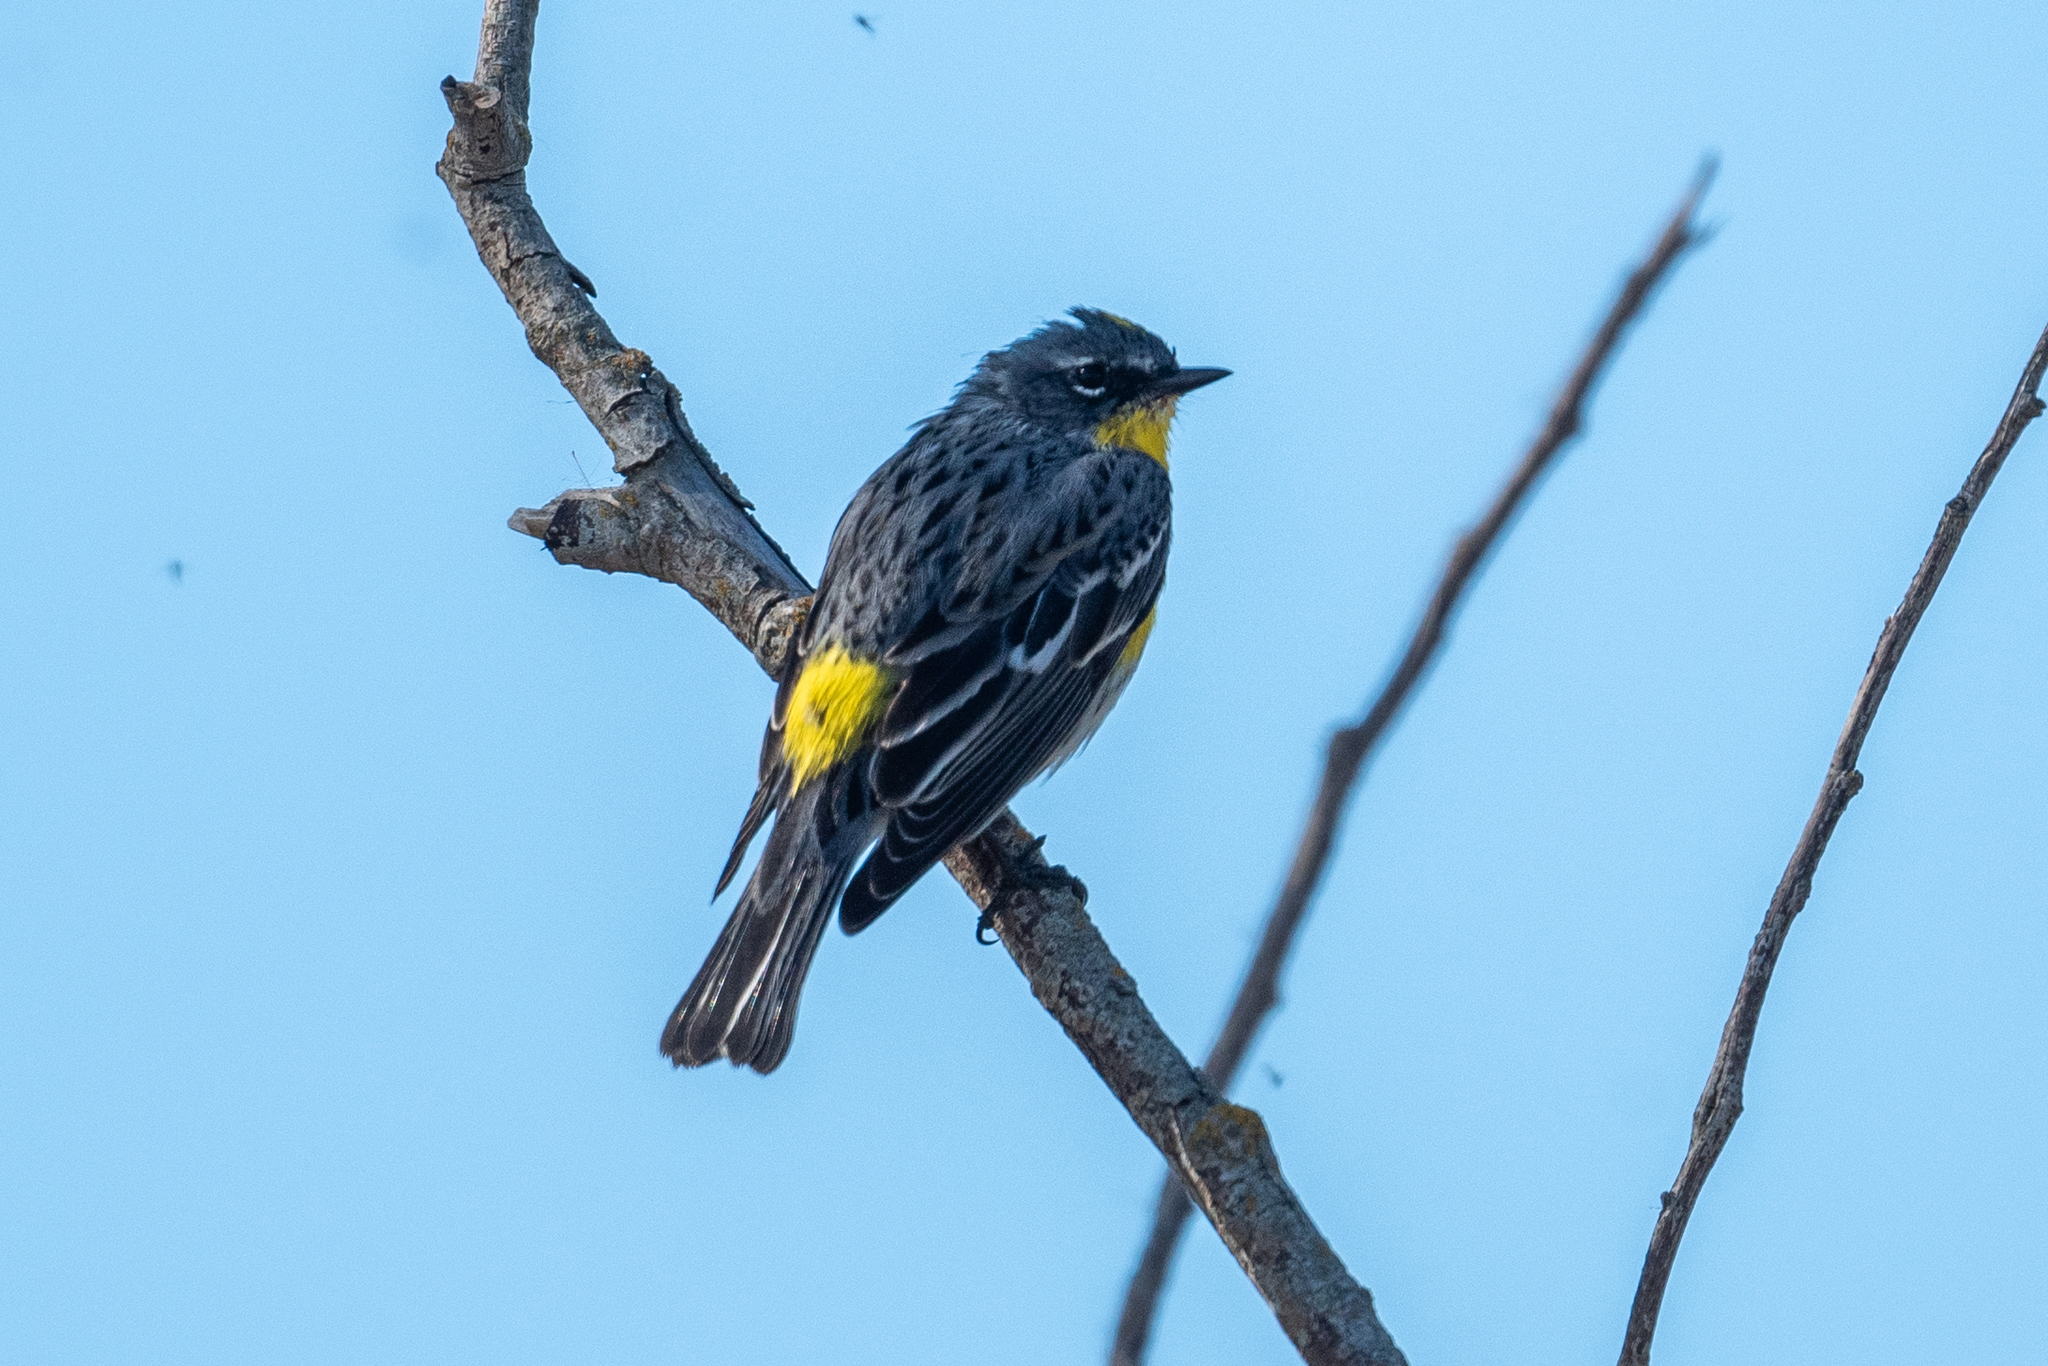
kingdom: Animalia
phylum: Chordata
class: Aves
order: Passeriformes
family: Parulidae
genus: Setophaga
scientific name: Setophaga coronata
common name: Myrtle warbler
